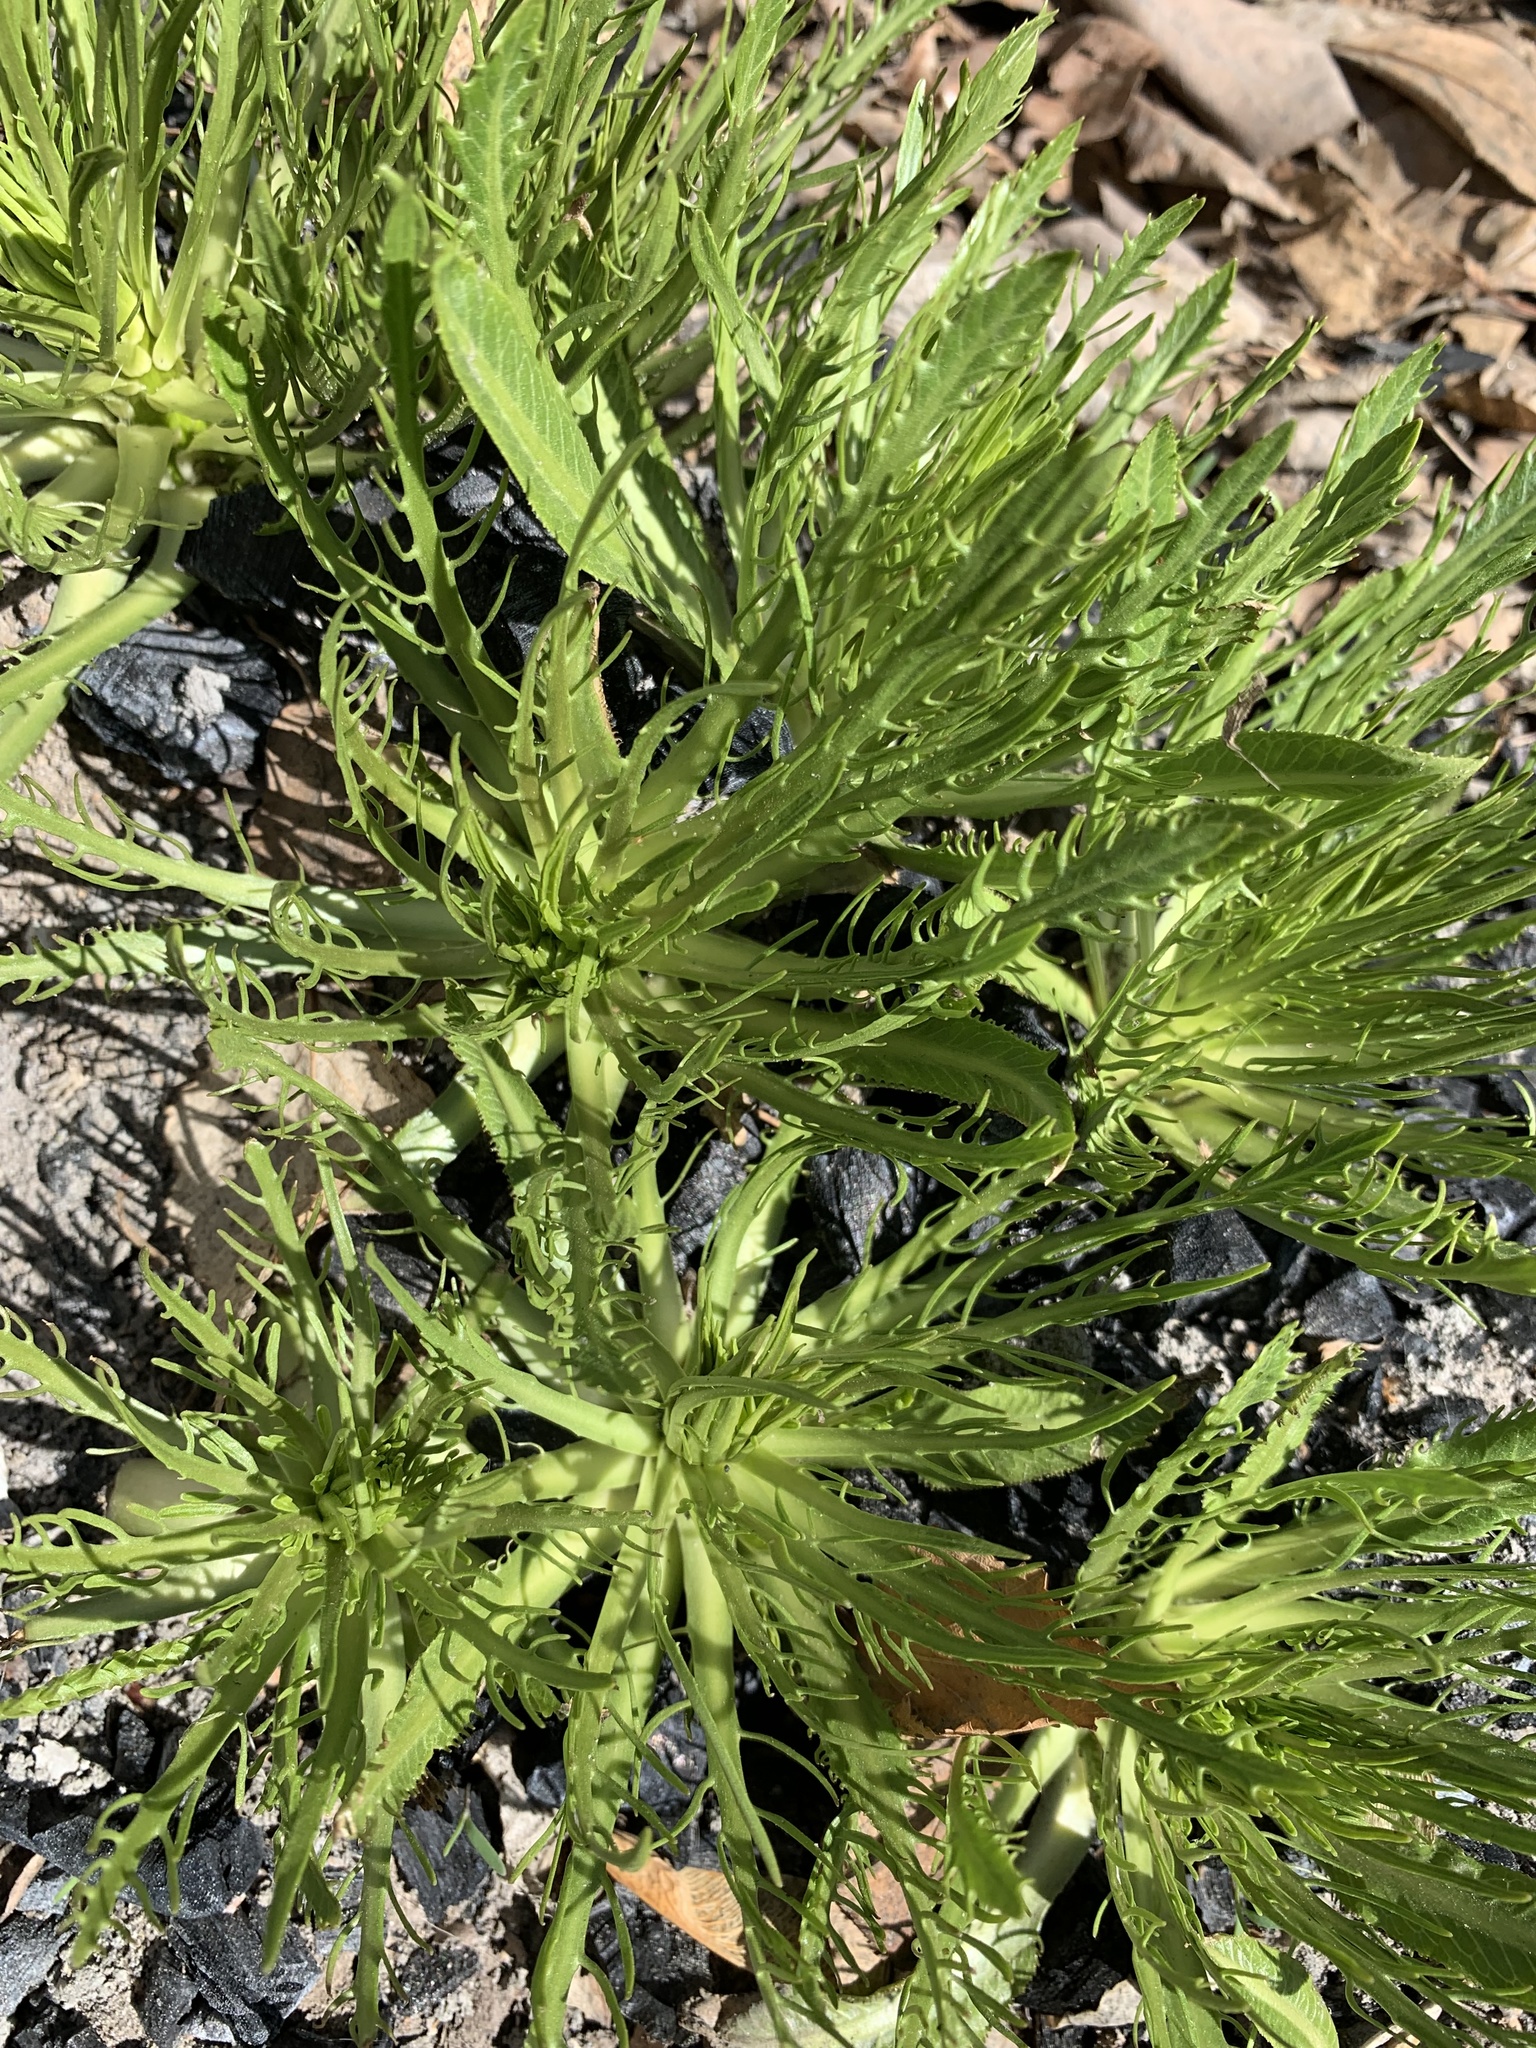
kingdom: Plantae
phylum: Tracheophyta
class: Magnoliopsida
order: Asterales
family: Asteraceae
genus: Tephroseris
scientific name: Tephroseris palustris
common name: Marsh fleawort
